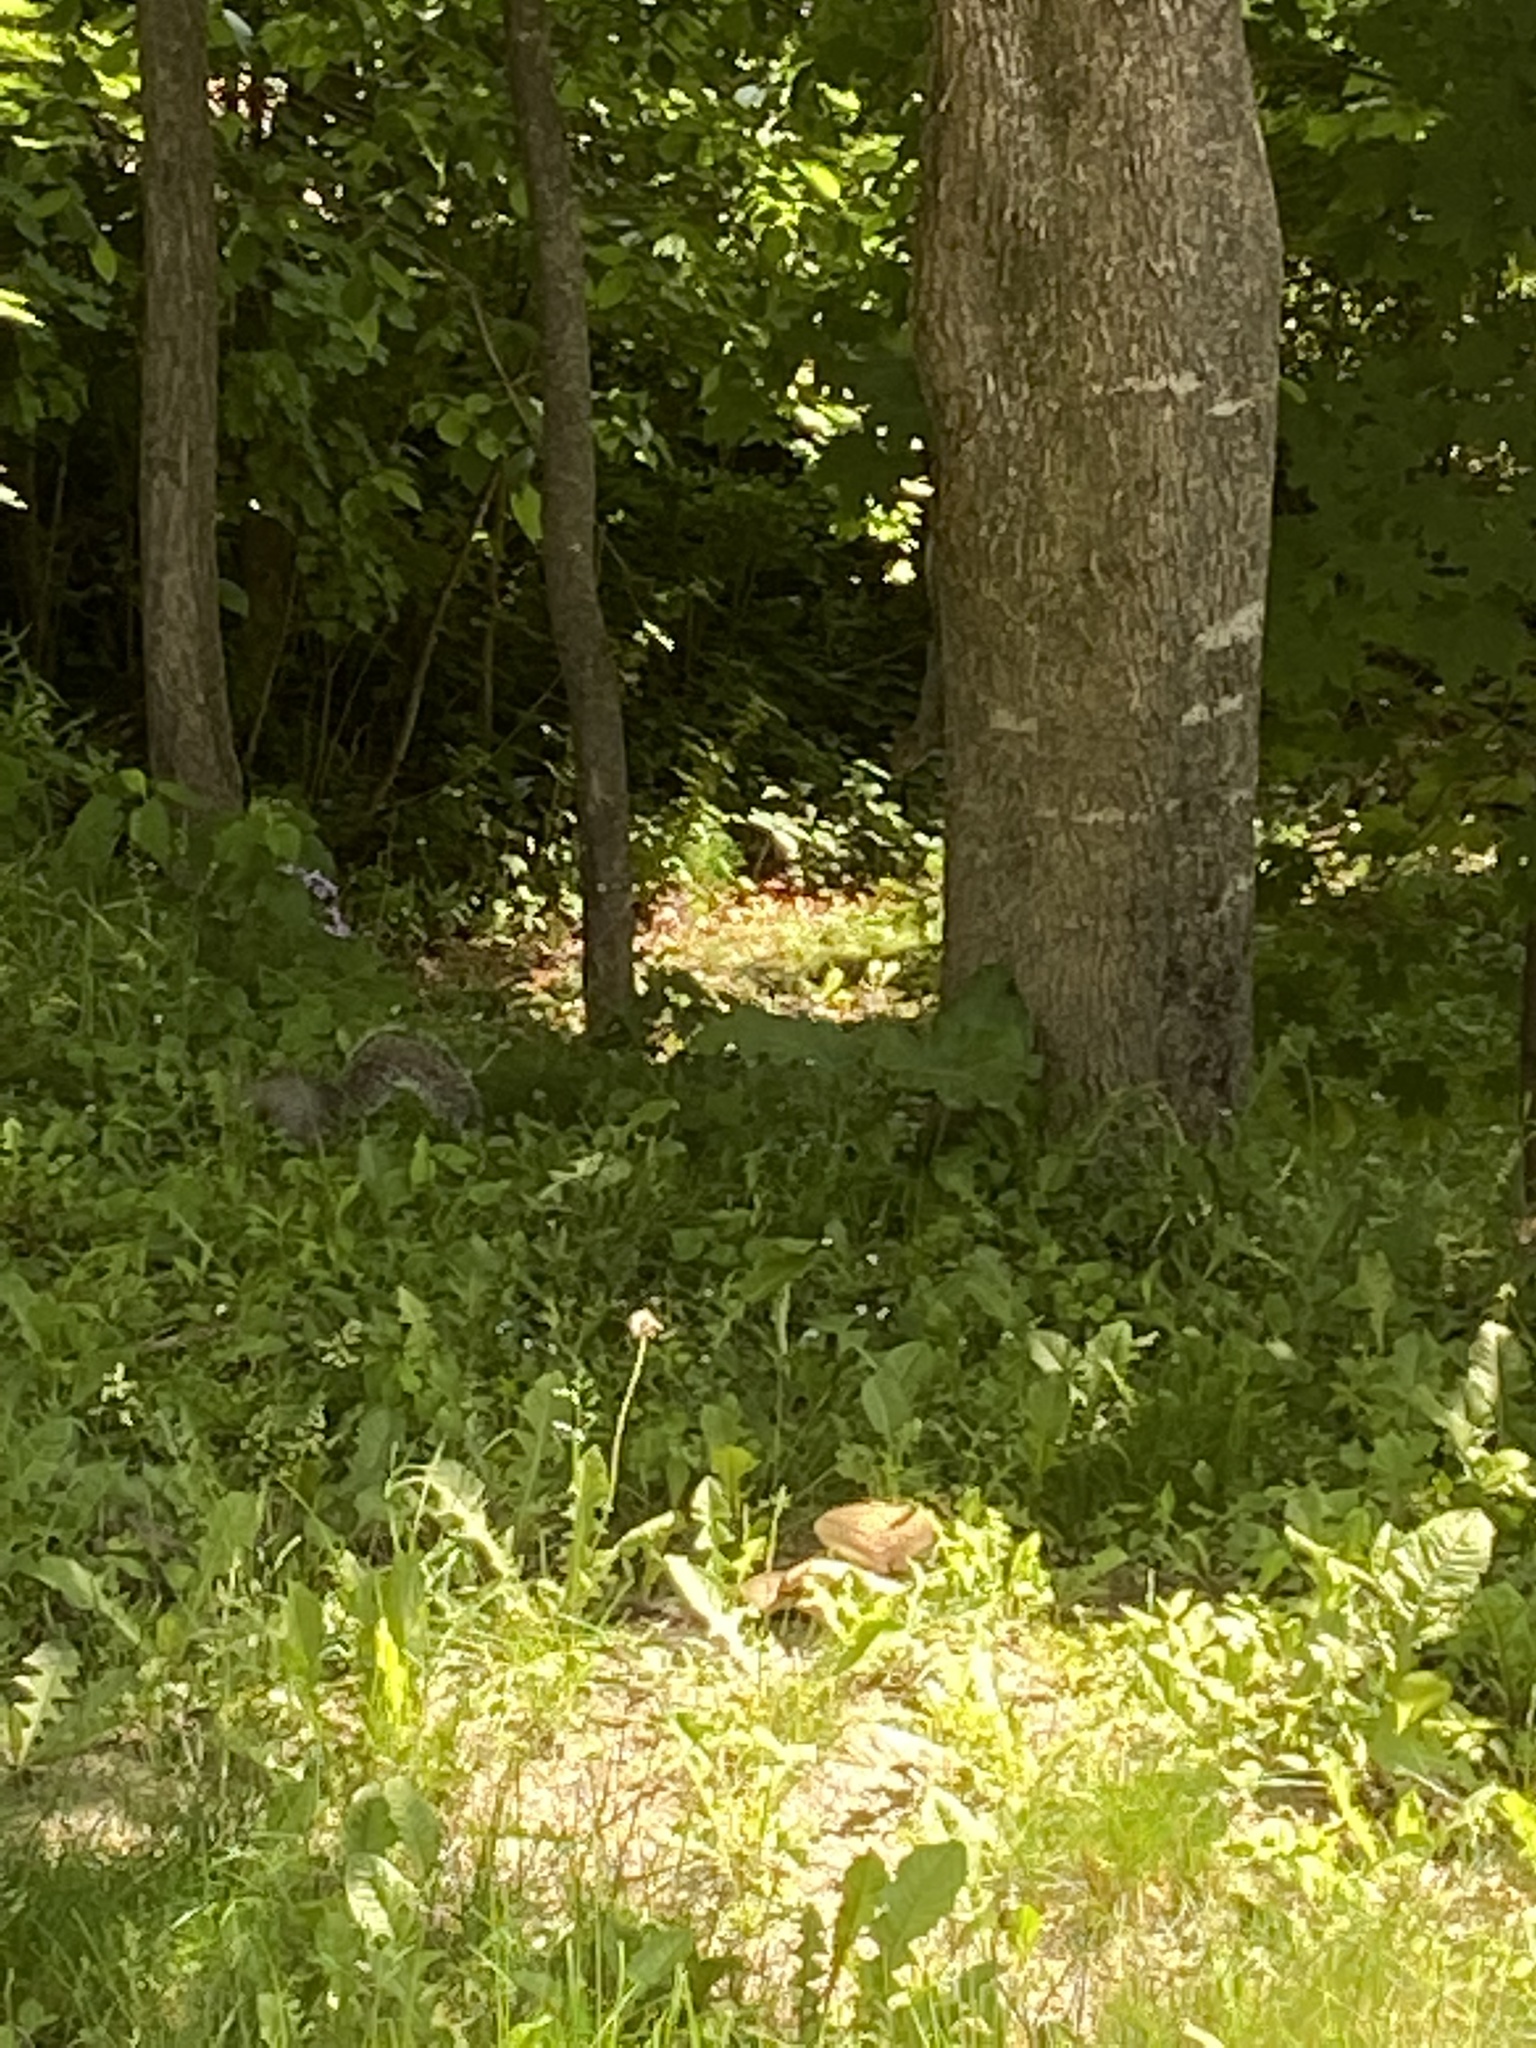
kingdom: Animalia
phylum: Chordata
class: Mammalia
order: Rodentia
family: Sciuridae
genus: Sciurus
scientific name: Sciurus carolinensis
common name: Eastern gray squirrel
